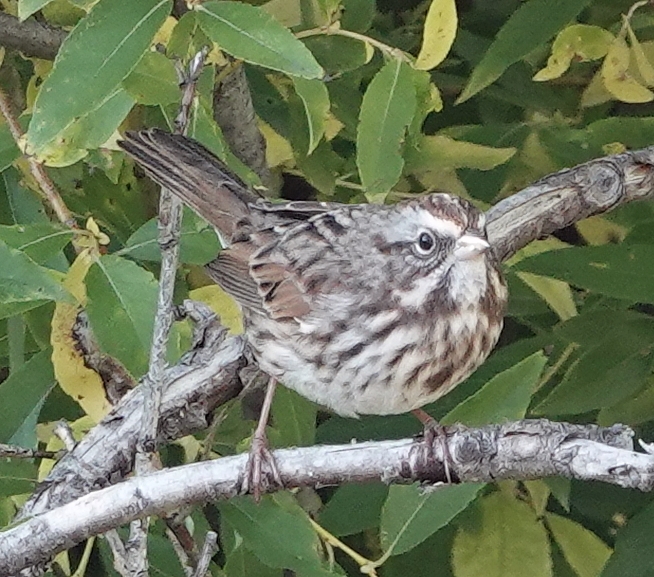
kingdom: Animalia
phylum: Chordata
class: Aves
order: Passeriformes
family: Passerellidae
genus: Melospiza
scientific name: Melospiza melodia
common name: Song sparrow
